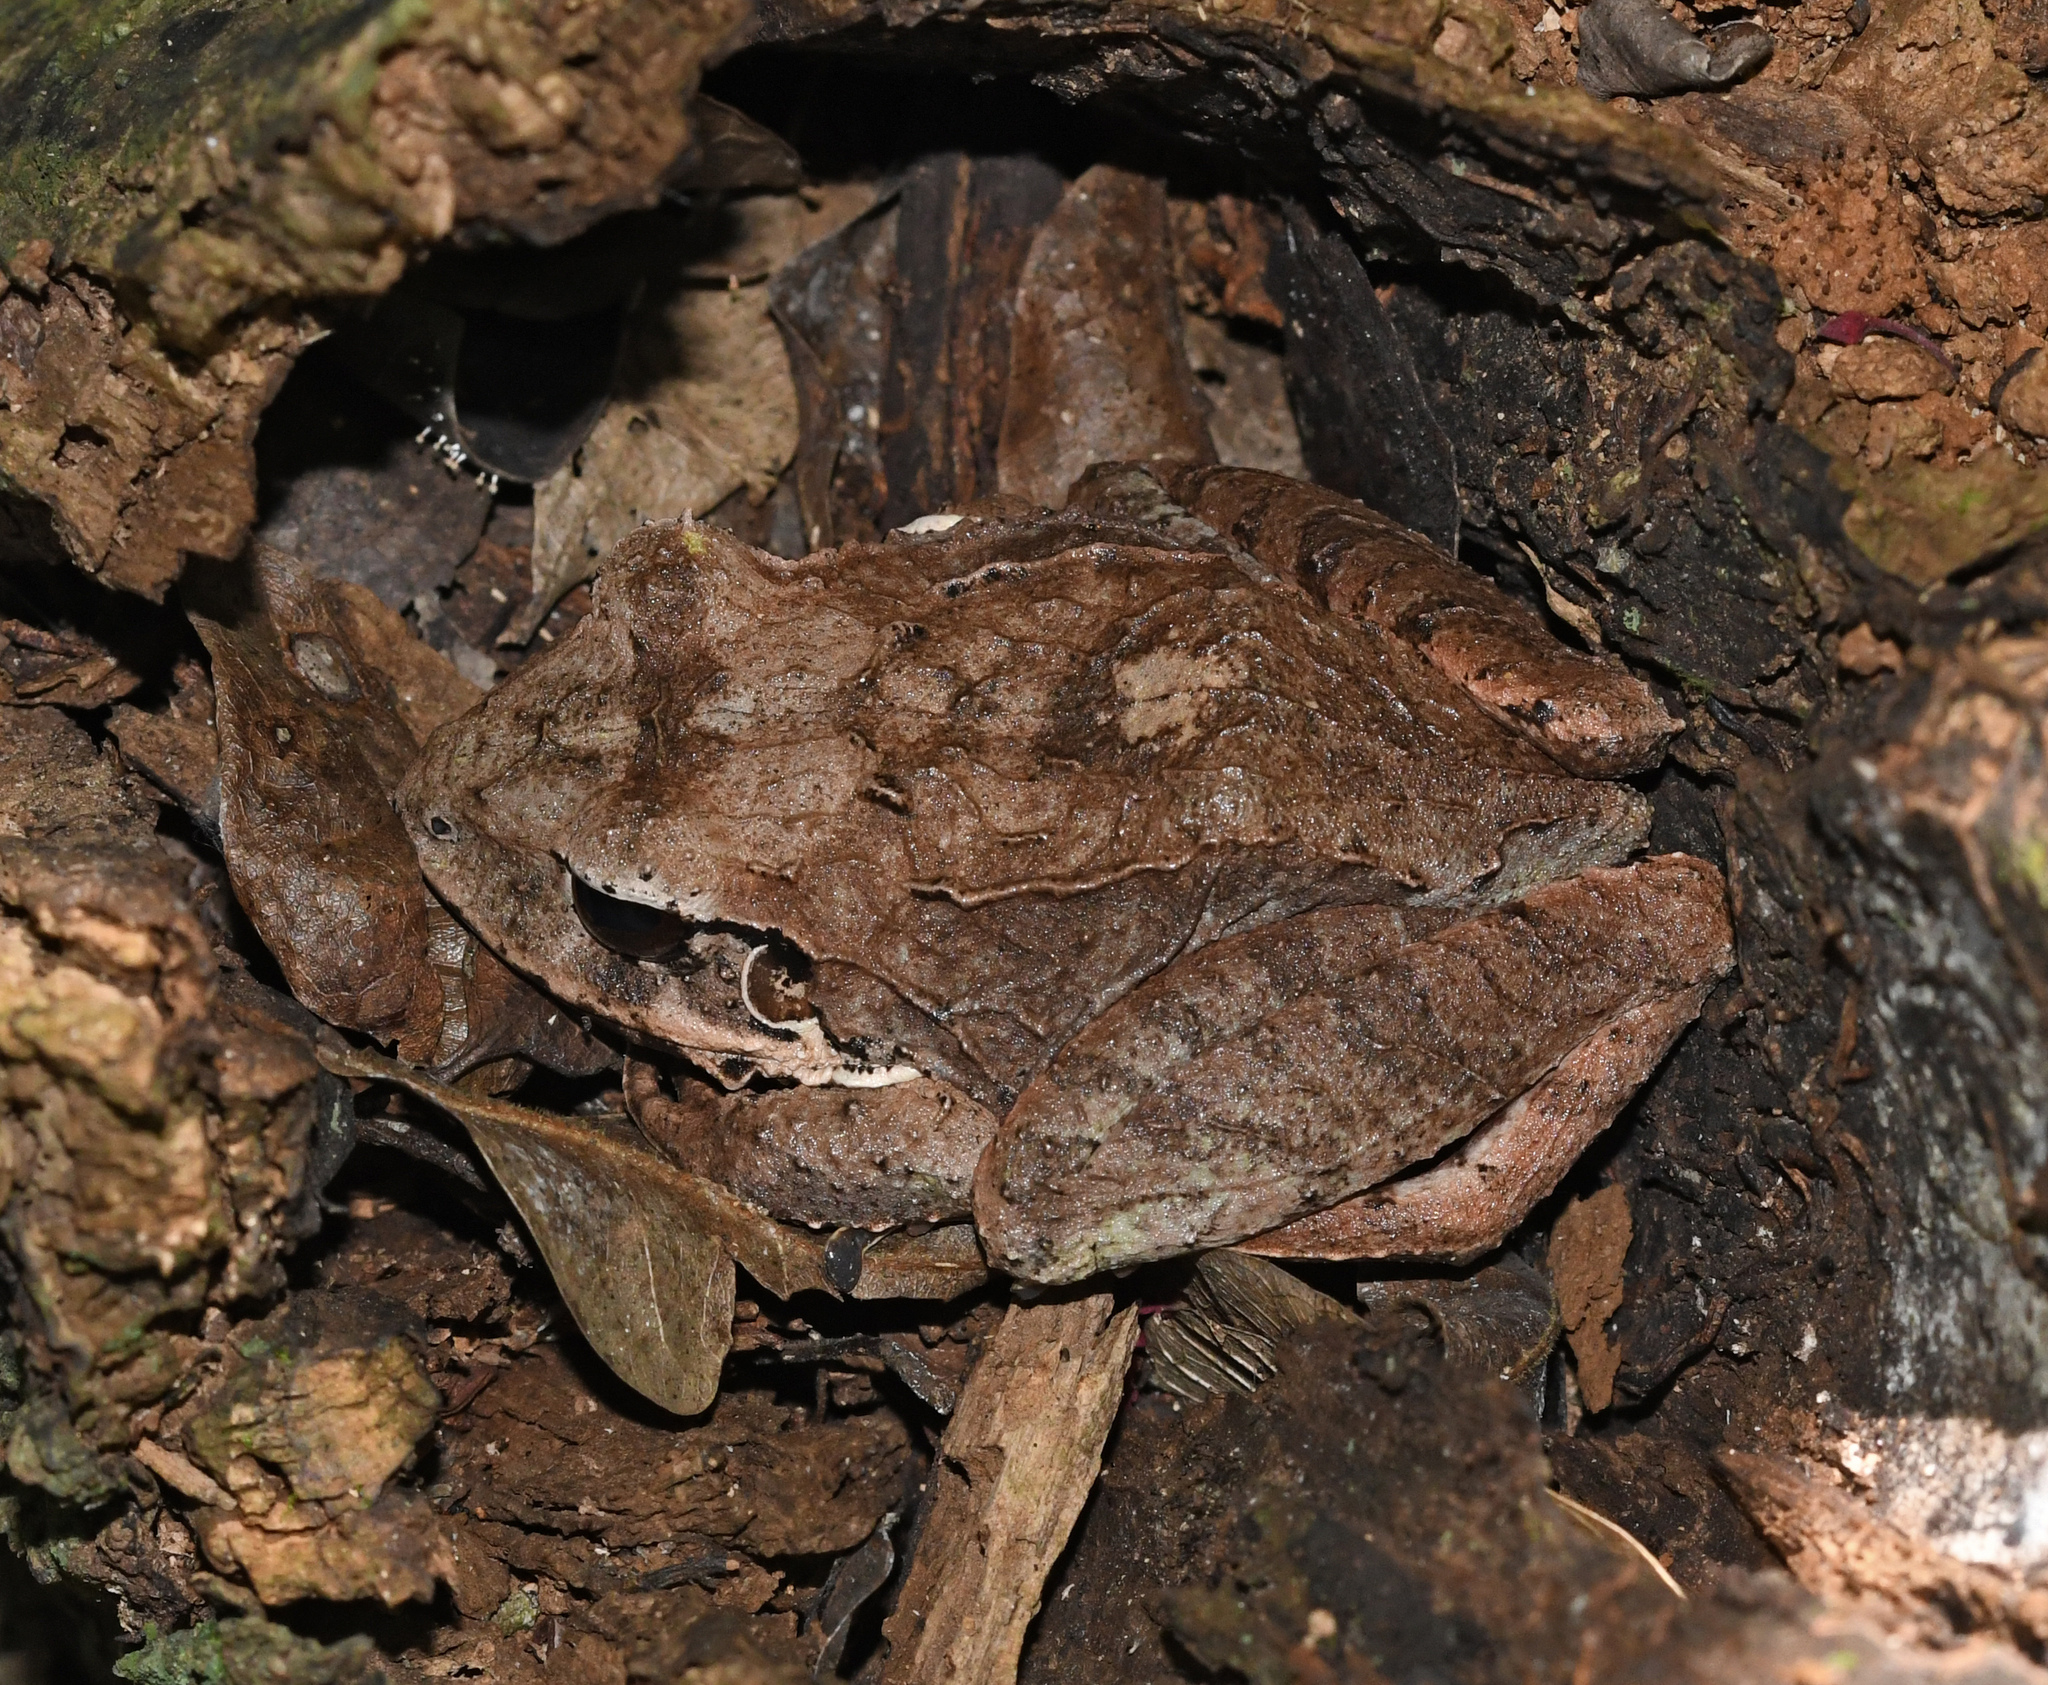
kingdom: Animalia
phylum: Chordata
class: Amphibia
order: Anura
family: Eleutherodactylidae
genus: Eleutherodactylus
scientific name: Eleutherodactylus inoptatus
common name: Hispaniolan giant frog
